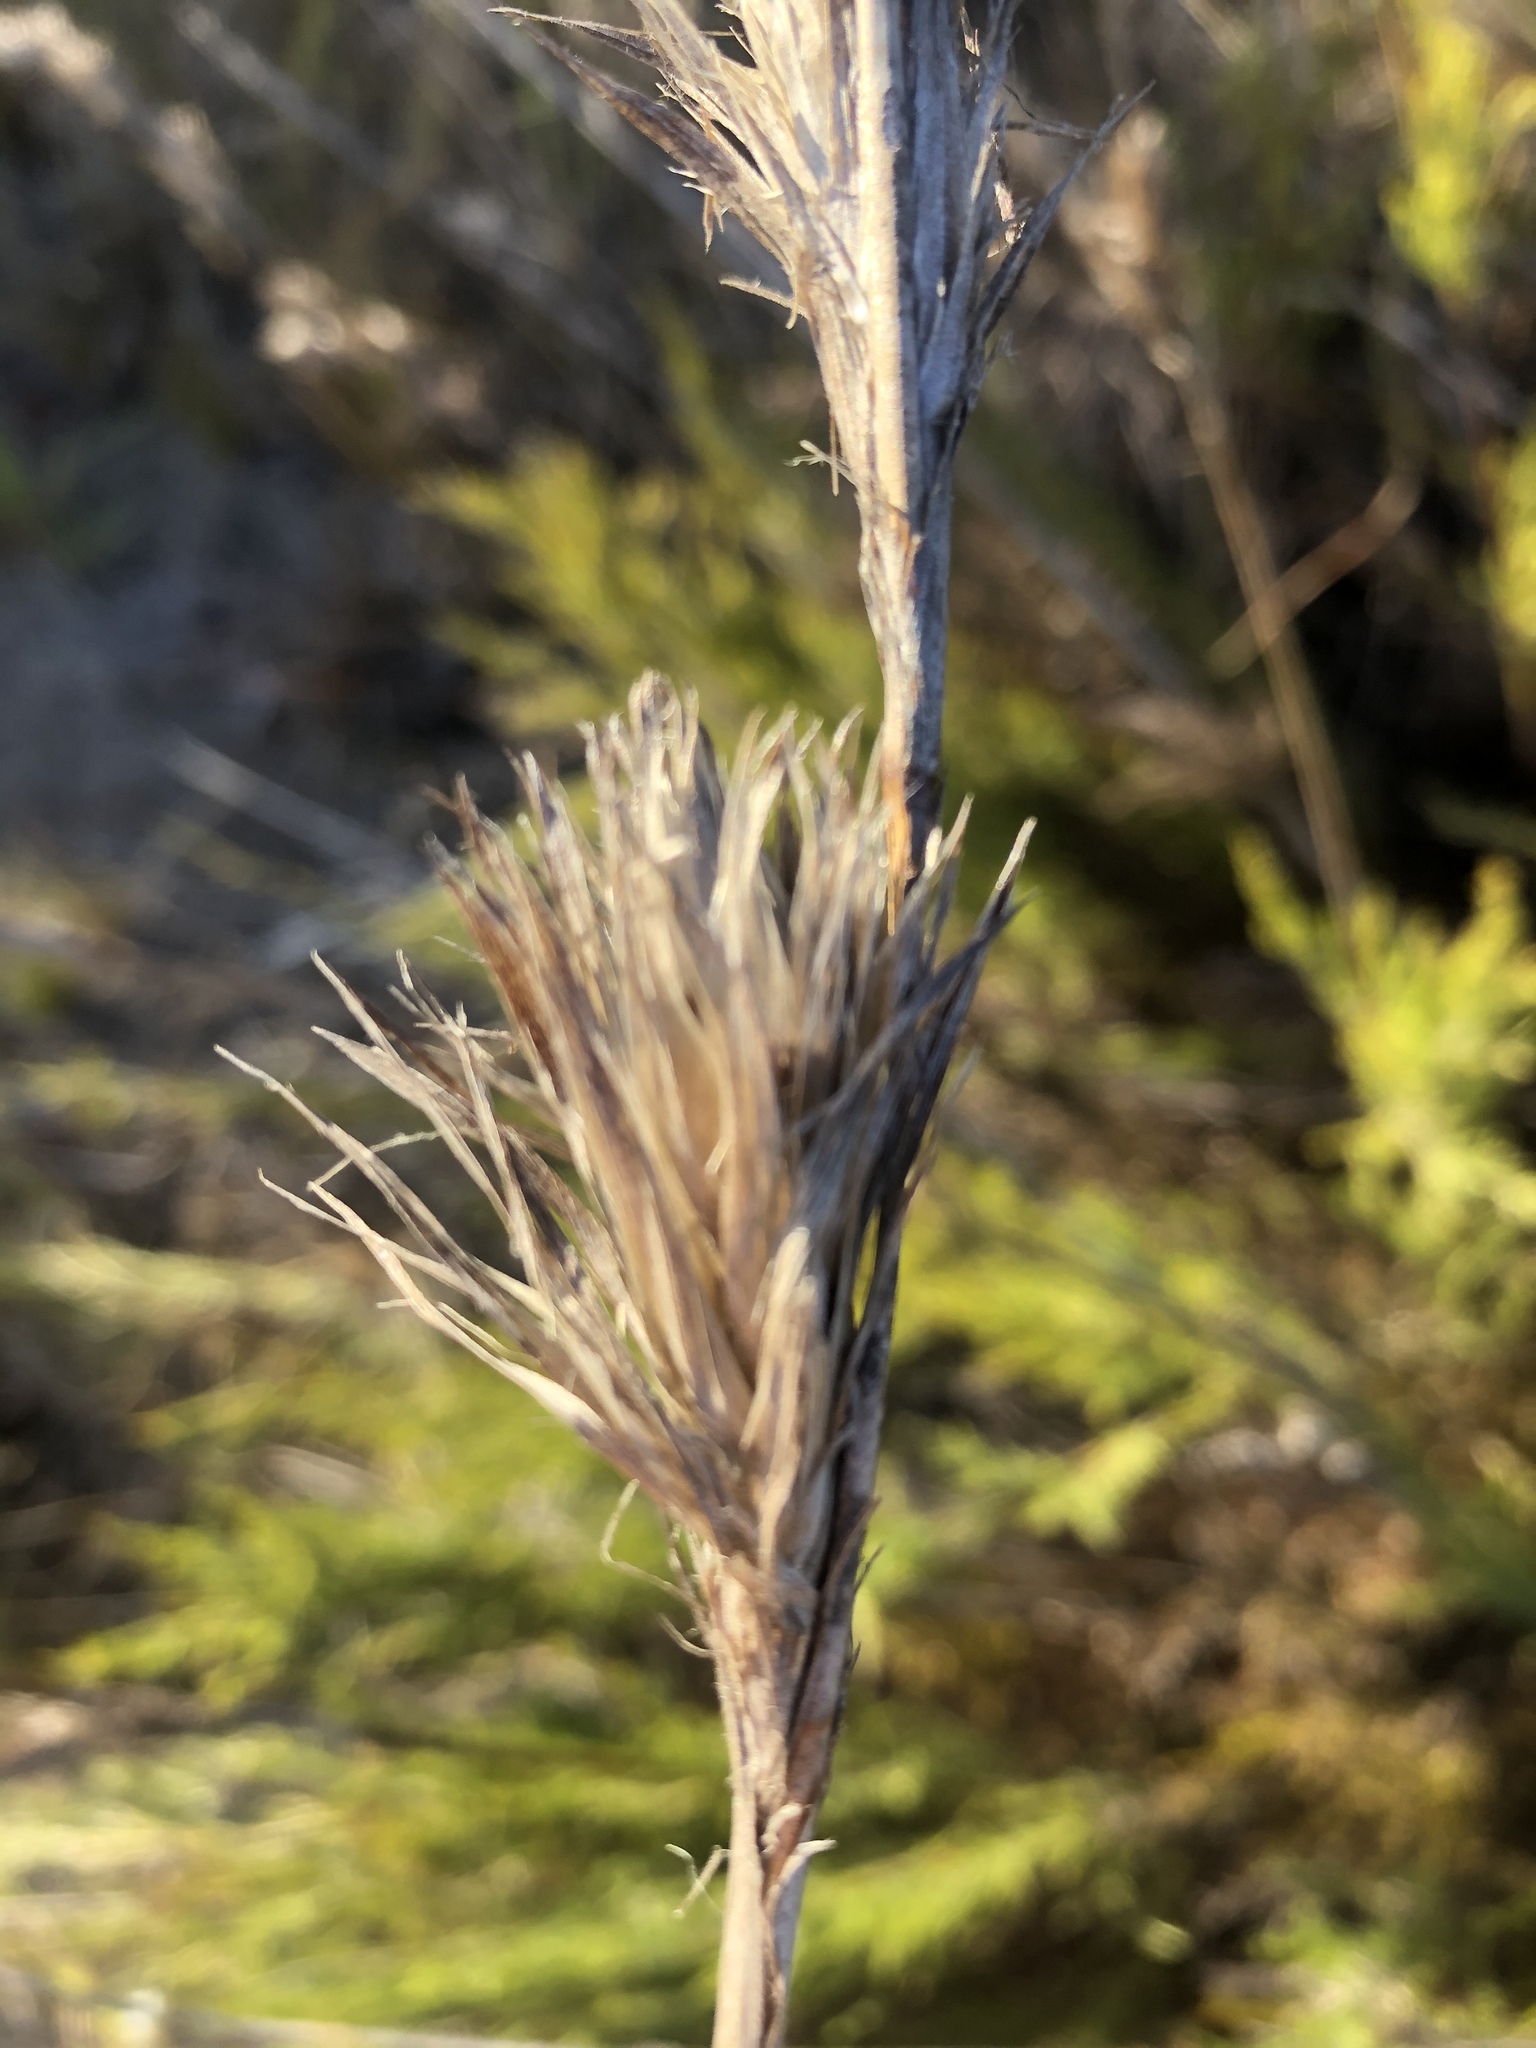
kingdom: Plantae
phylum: Tracheophyta
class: Liliopsida
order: Poales
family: Restionaceae
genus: Thamnochortus
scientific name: Thamnochortus glaber
